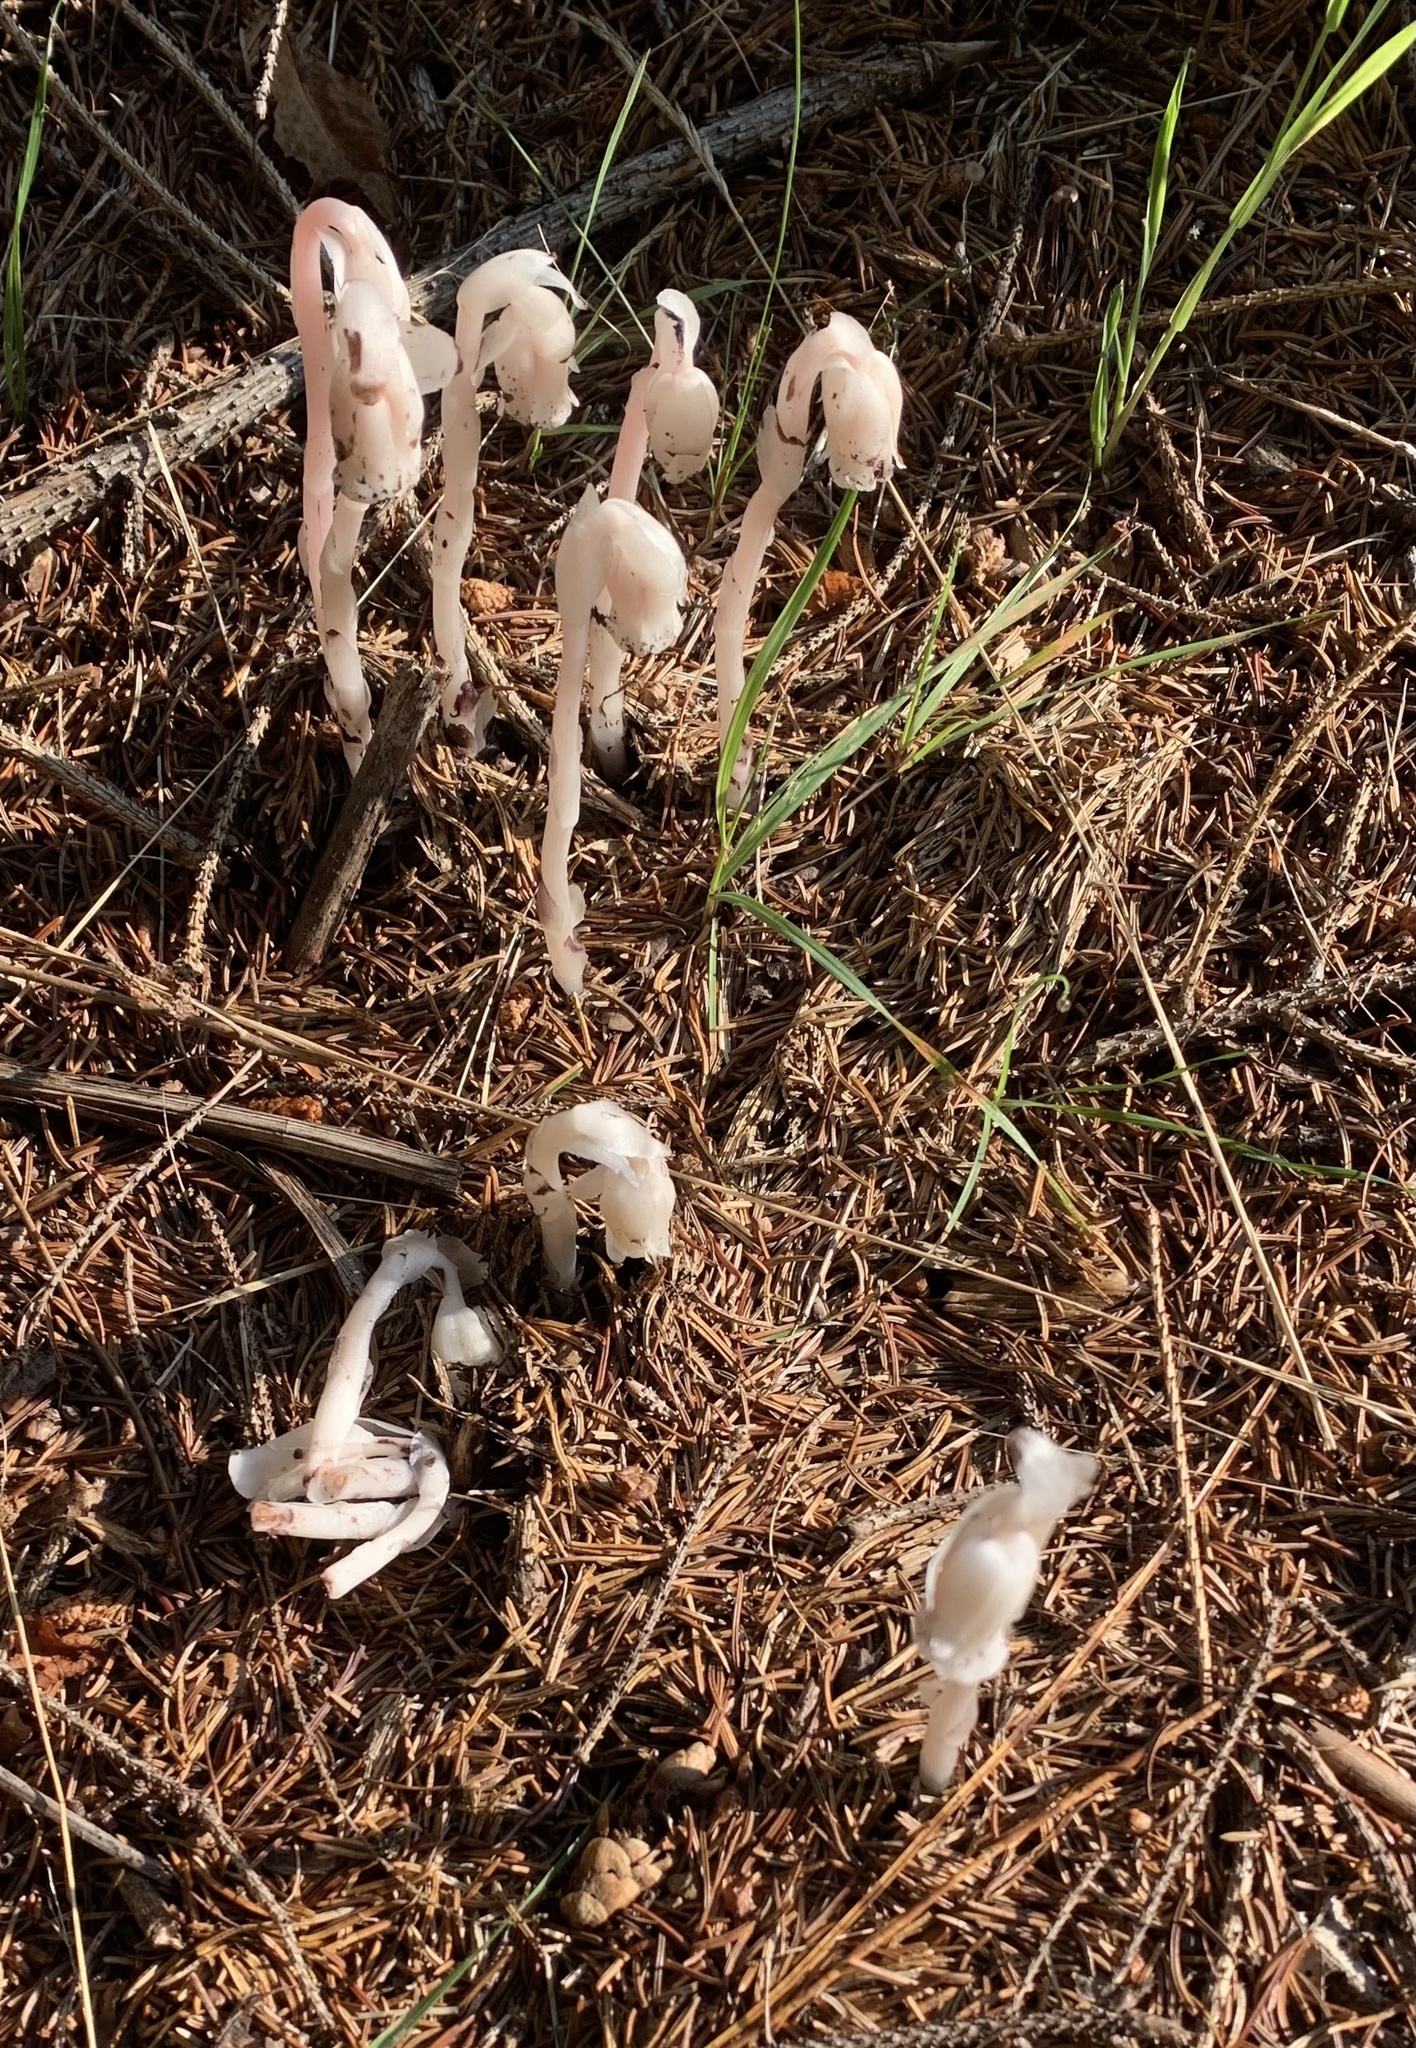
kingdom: Plantae
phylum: Tracheophyta
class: Magnoliopsida
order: Ericales
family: Ericaceae
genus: Monotropa
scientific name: Monotropa uniflora
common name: Convulsion root
